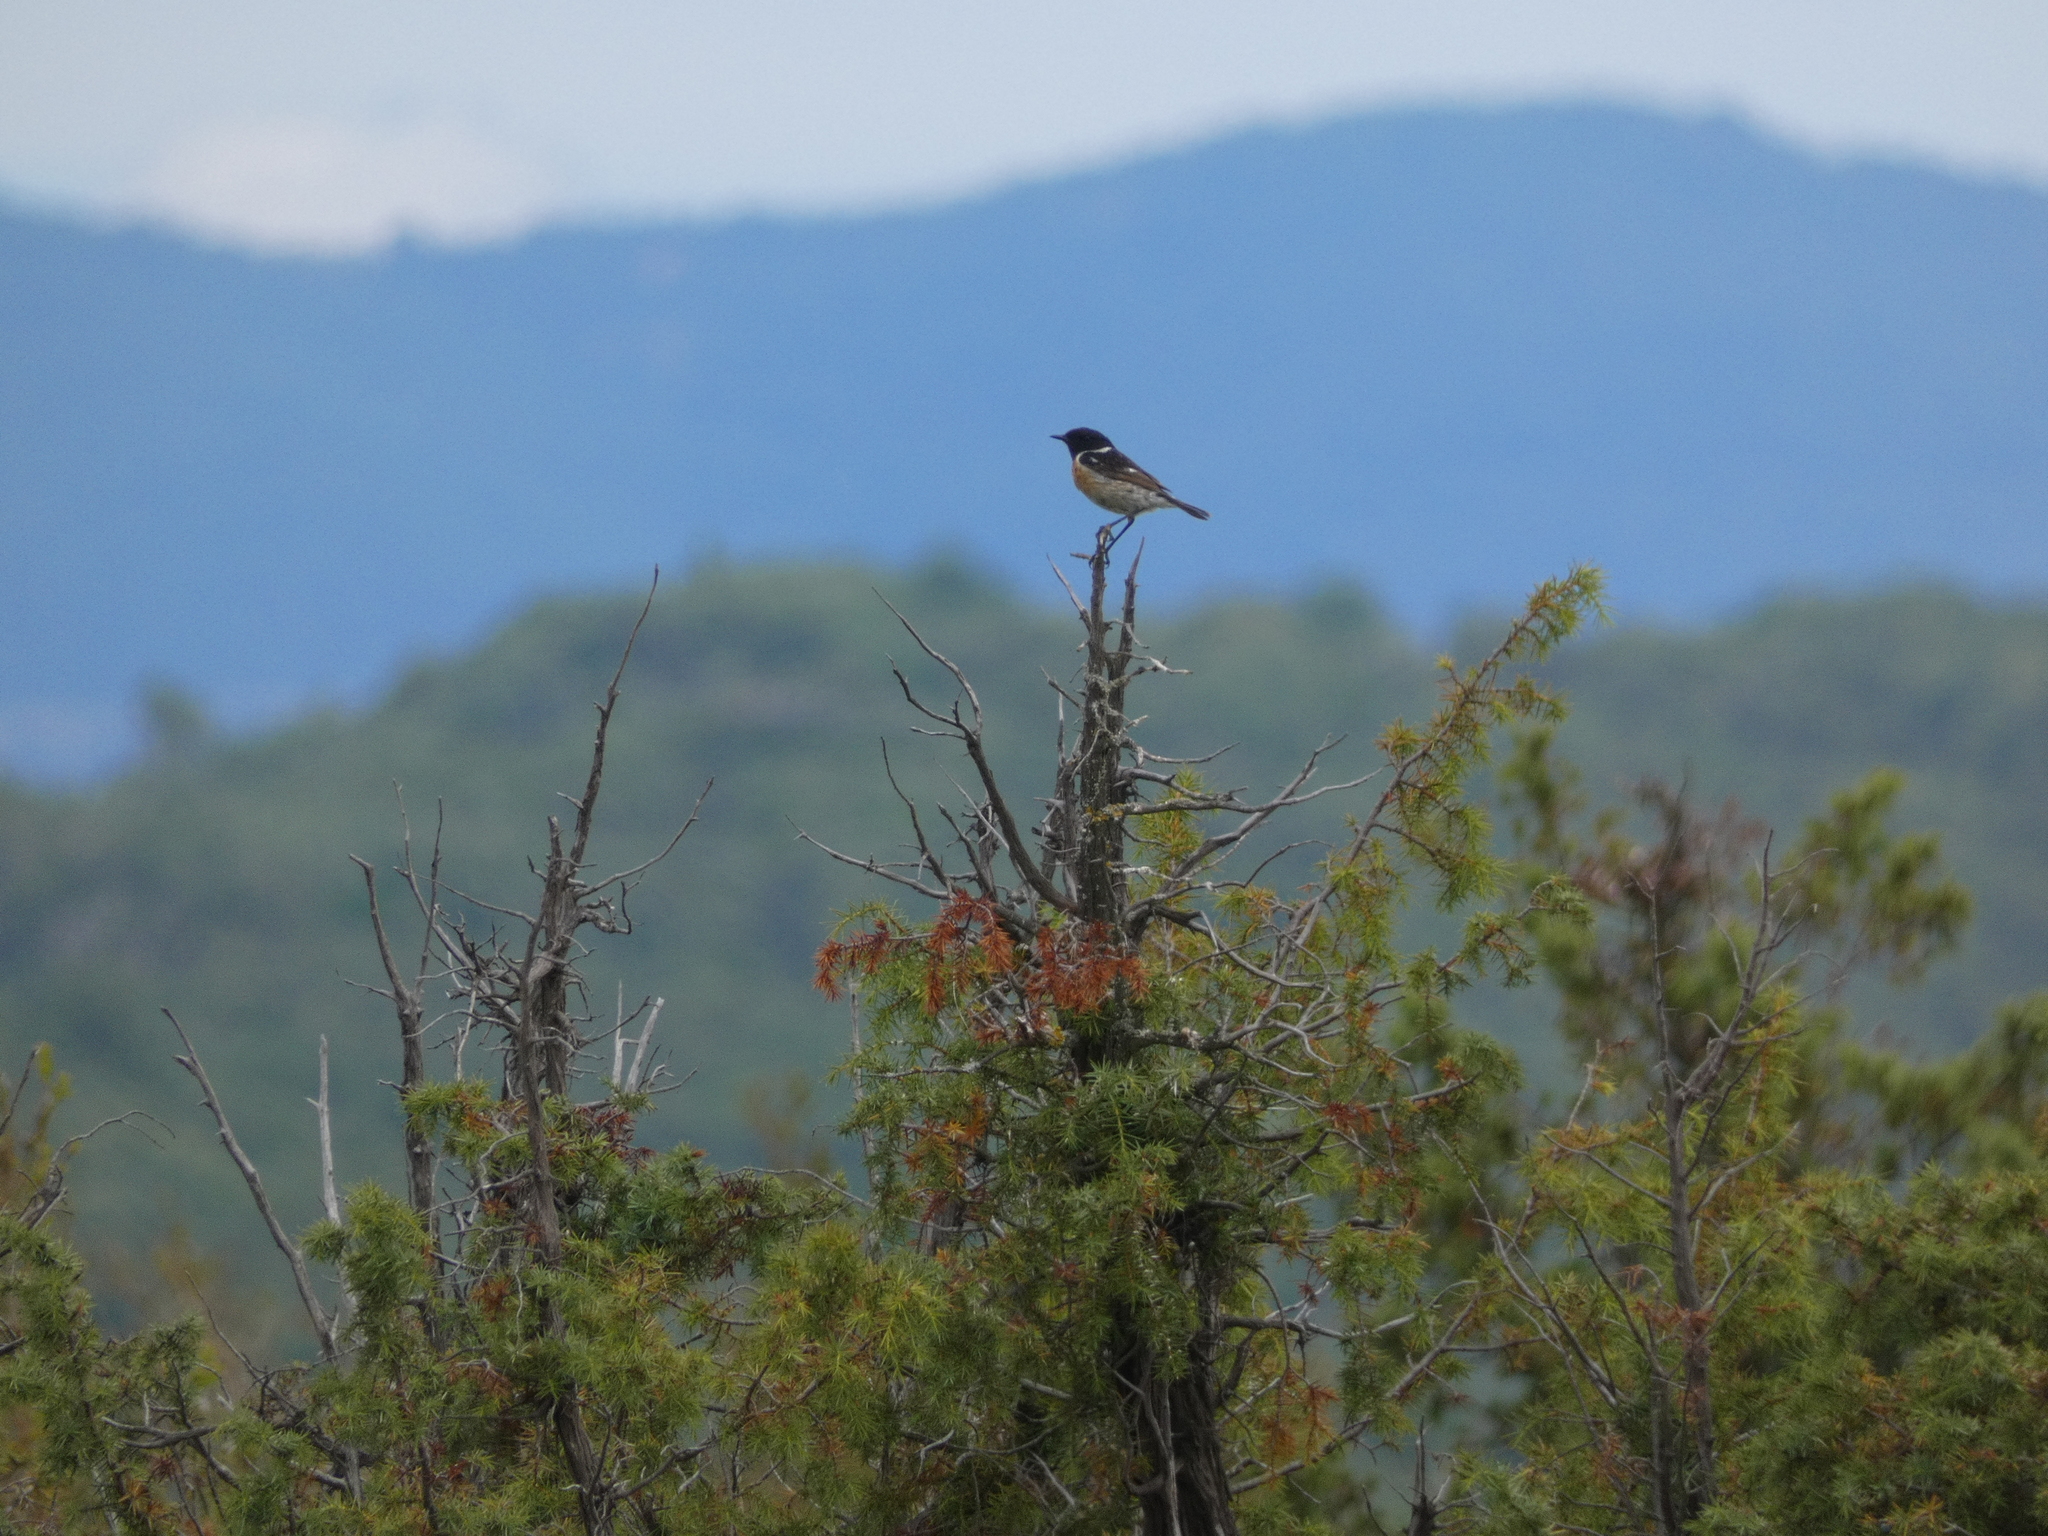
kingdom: Animalia
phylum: Chordata
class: Aves
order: Passeriformes
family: Muscicapidae
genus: Saxicola
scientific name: Saxicola rubicola
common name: European stonechat
